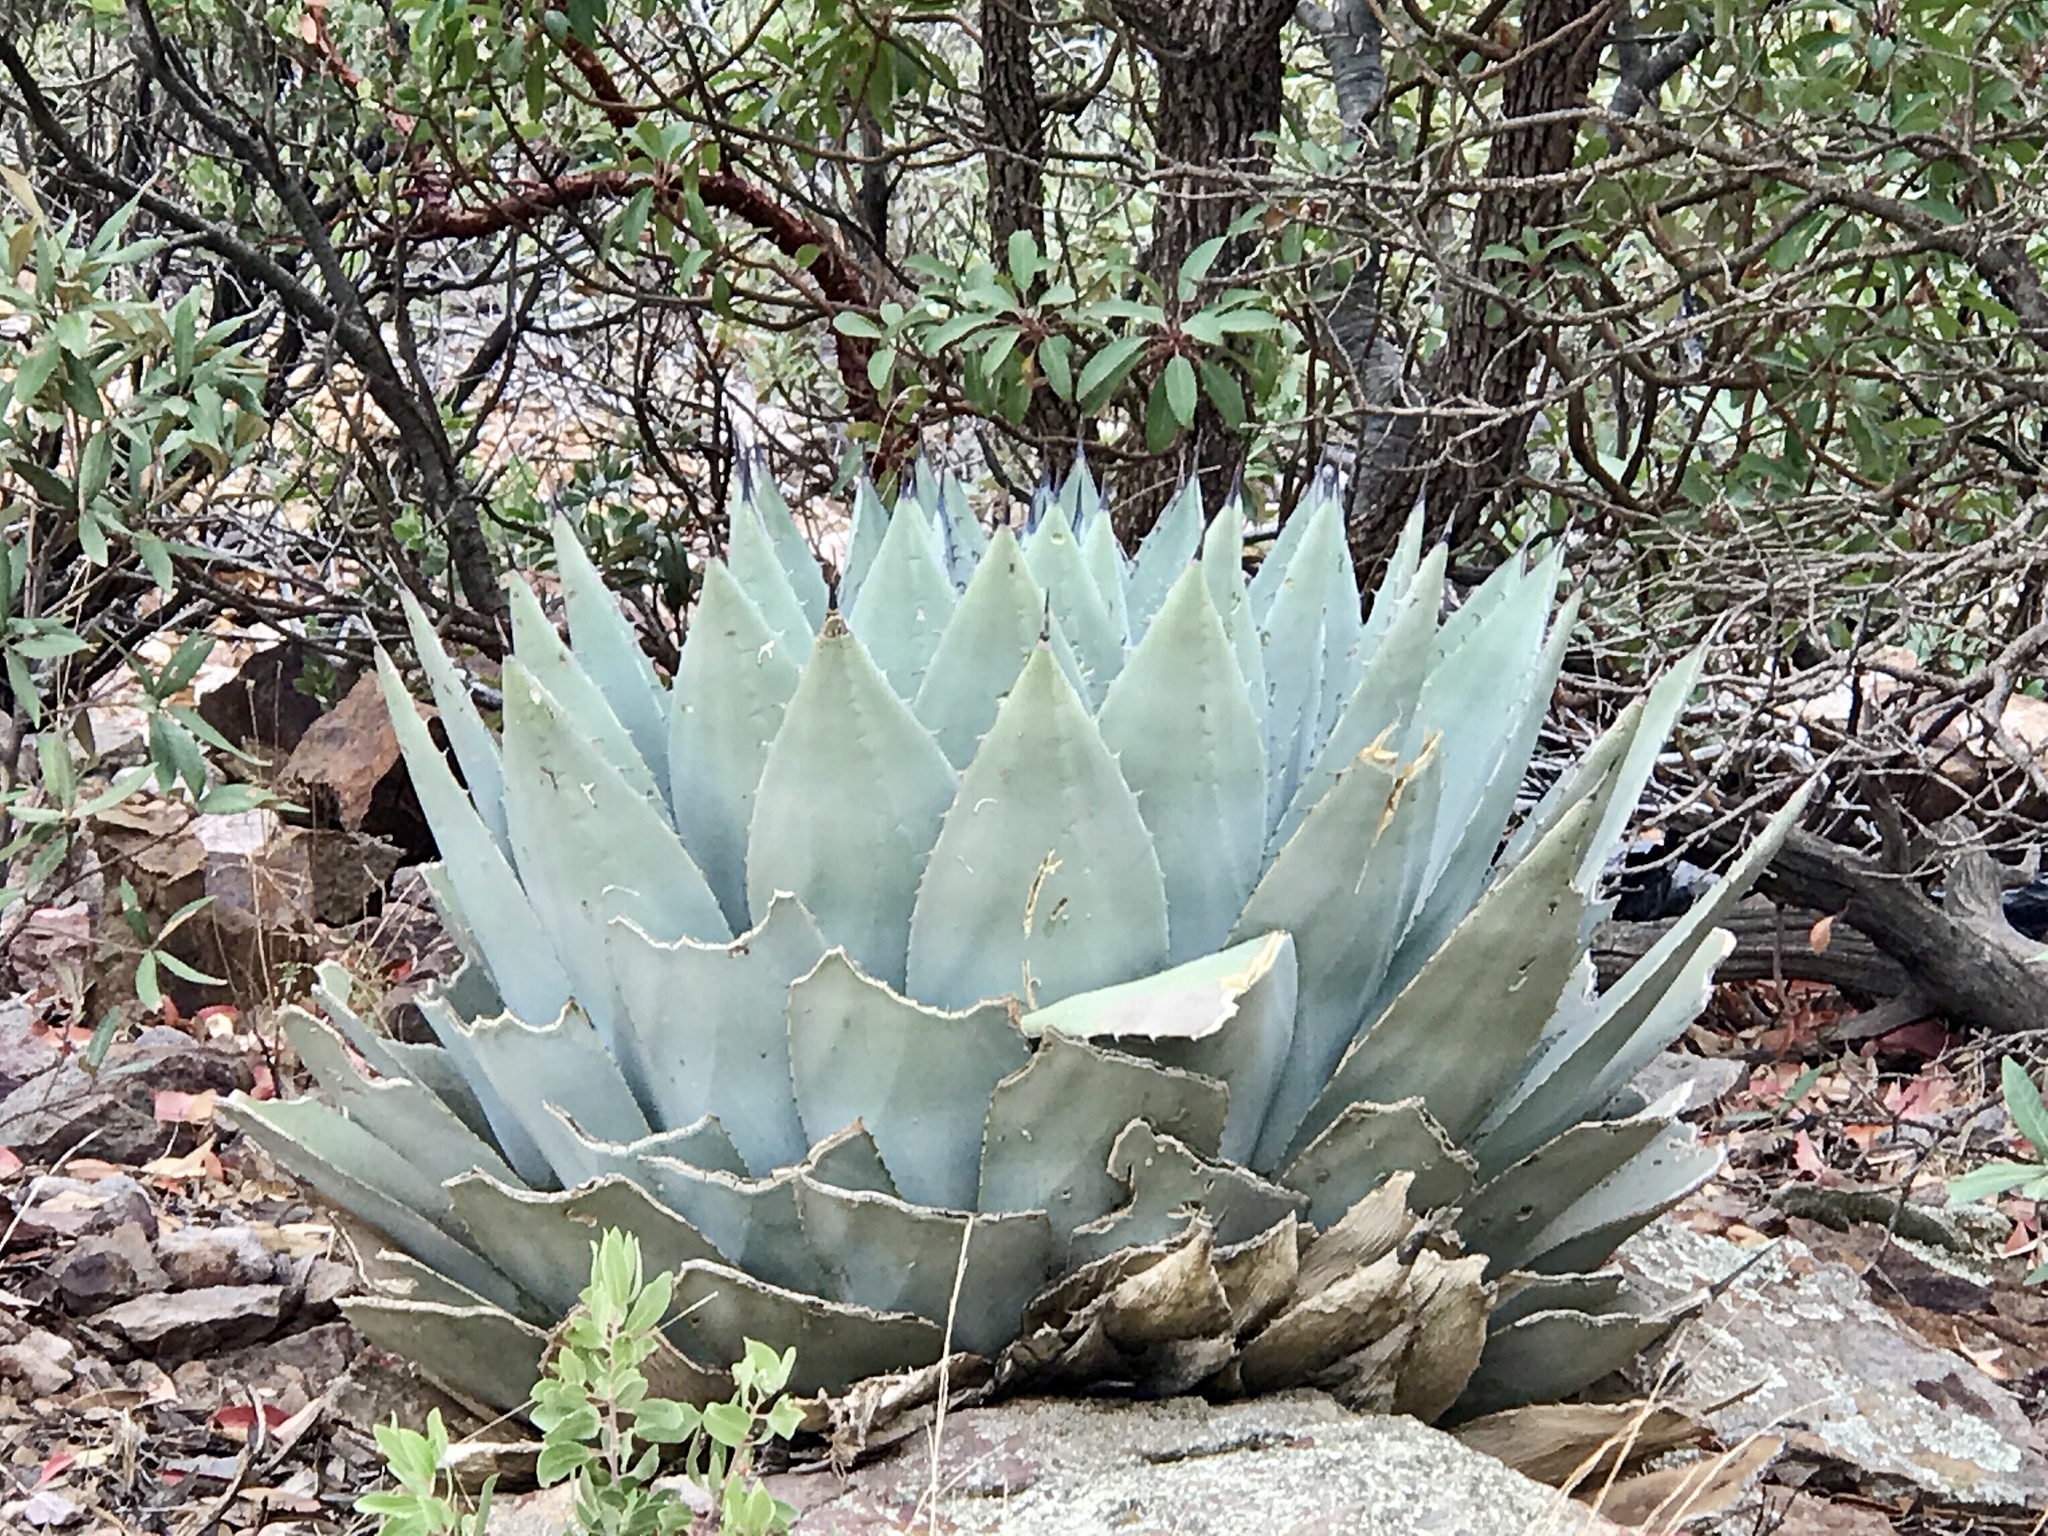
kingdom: Plantae
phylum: Tracheophyta
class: Liliopsida
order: Asparagales
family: Asparagaceae
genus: Agave
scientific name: Agave parryi
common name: Parry's agave
